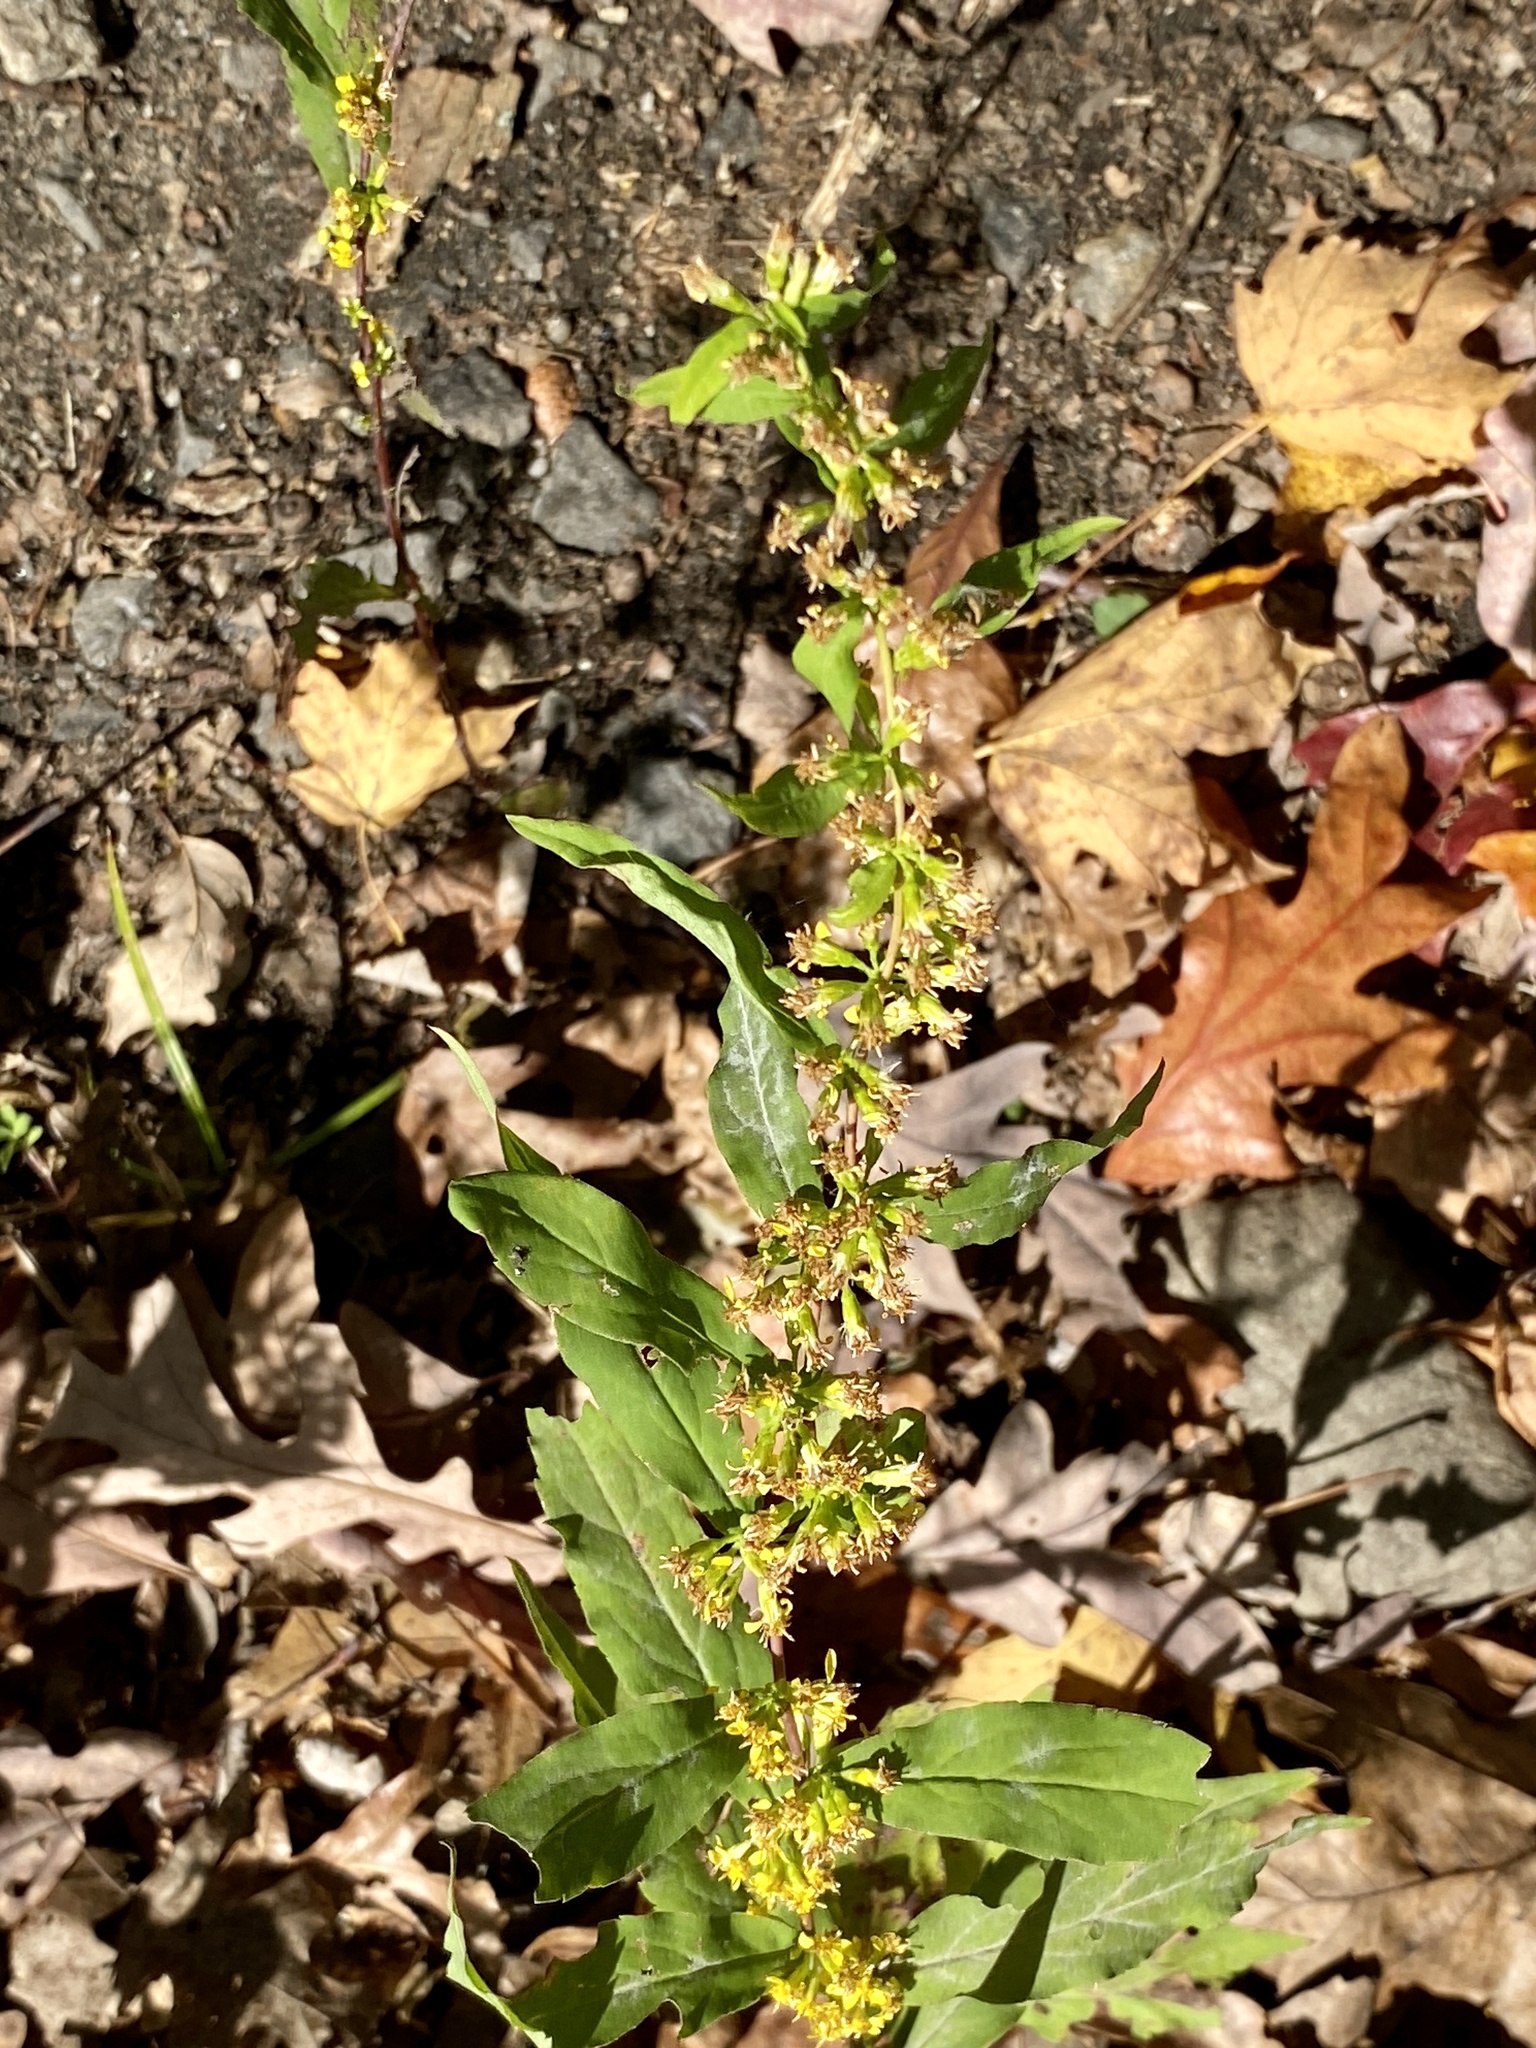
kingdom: Plantae
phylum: Tracheophyta
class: Magnoliopsida
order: Asterales
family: Asteraceae
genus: Solidago
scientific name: Solidago caesia
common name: Woodland goldenrod
